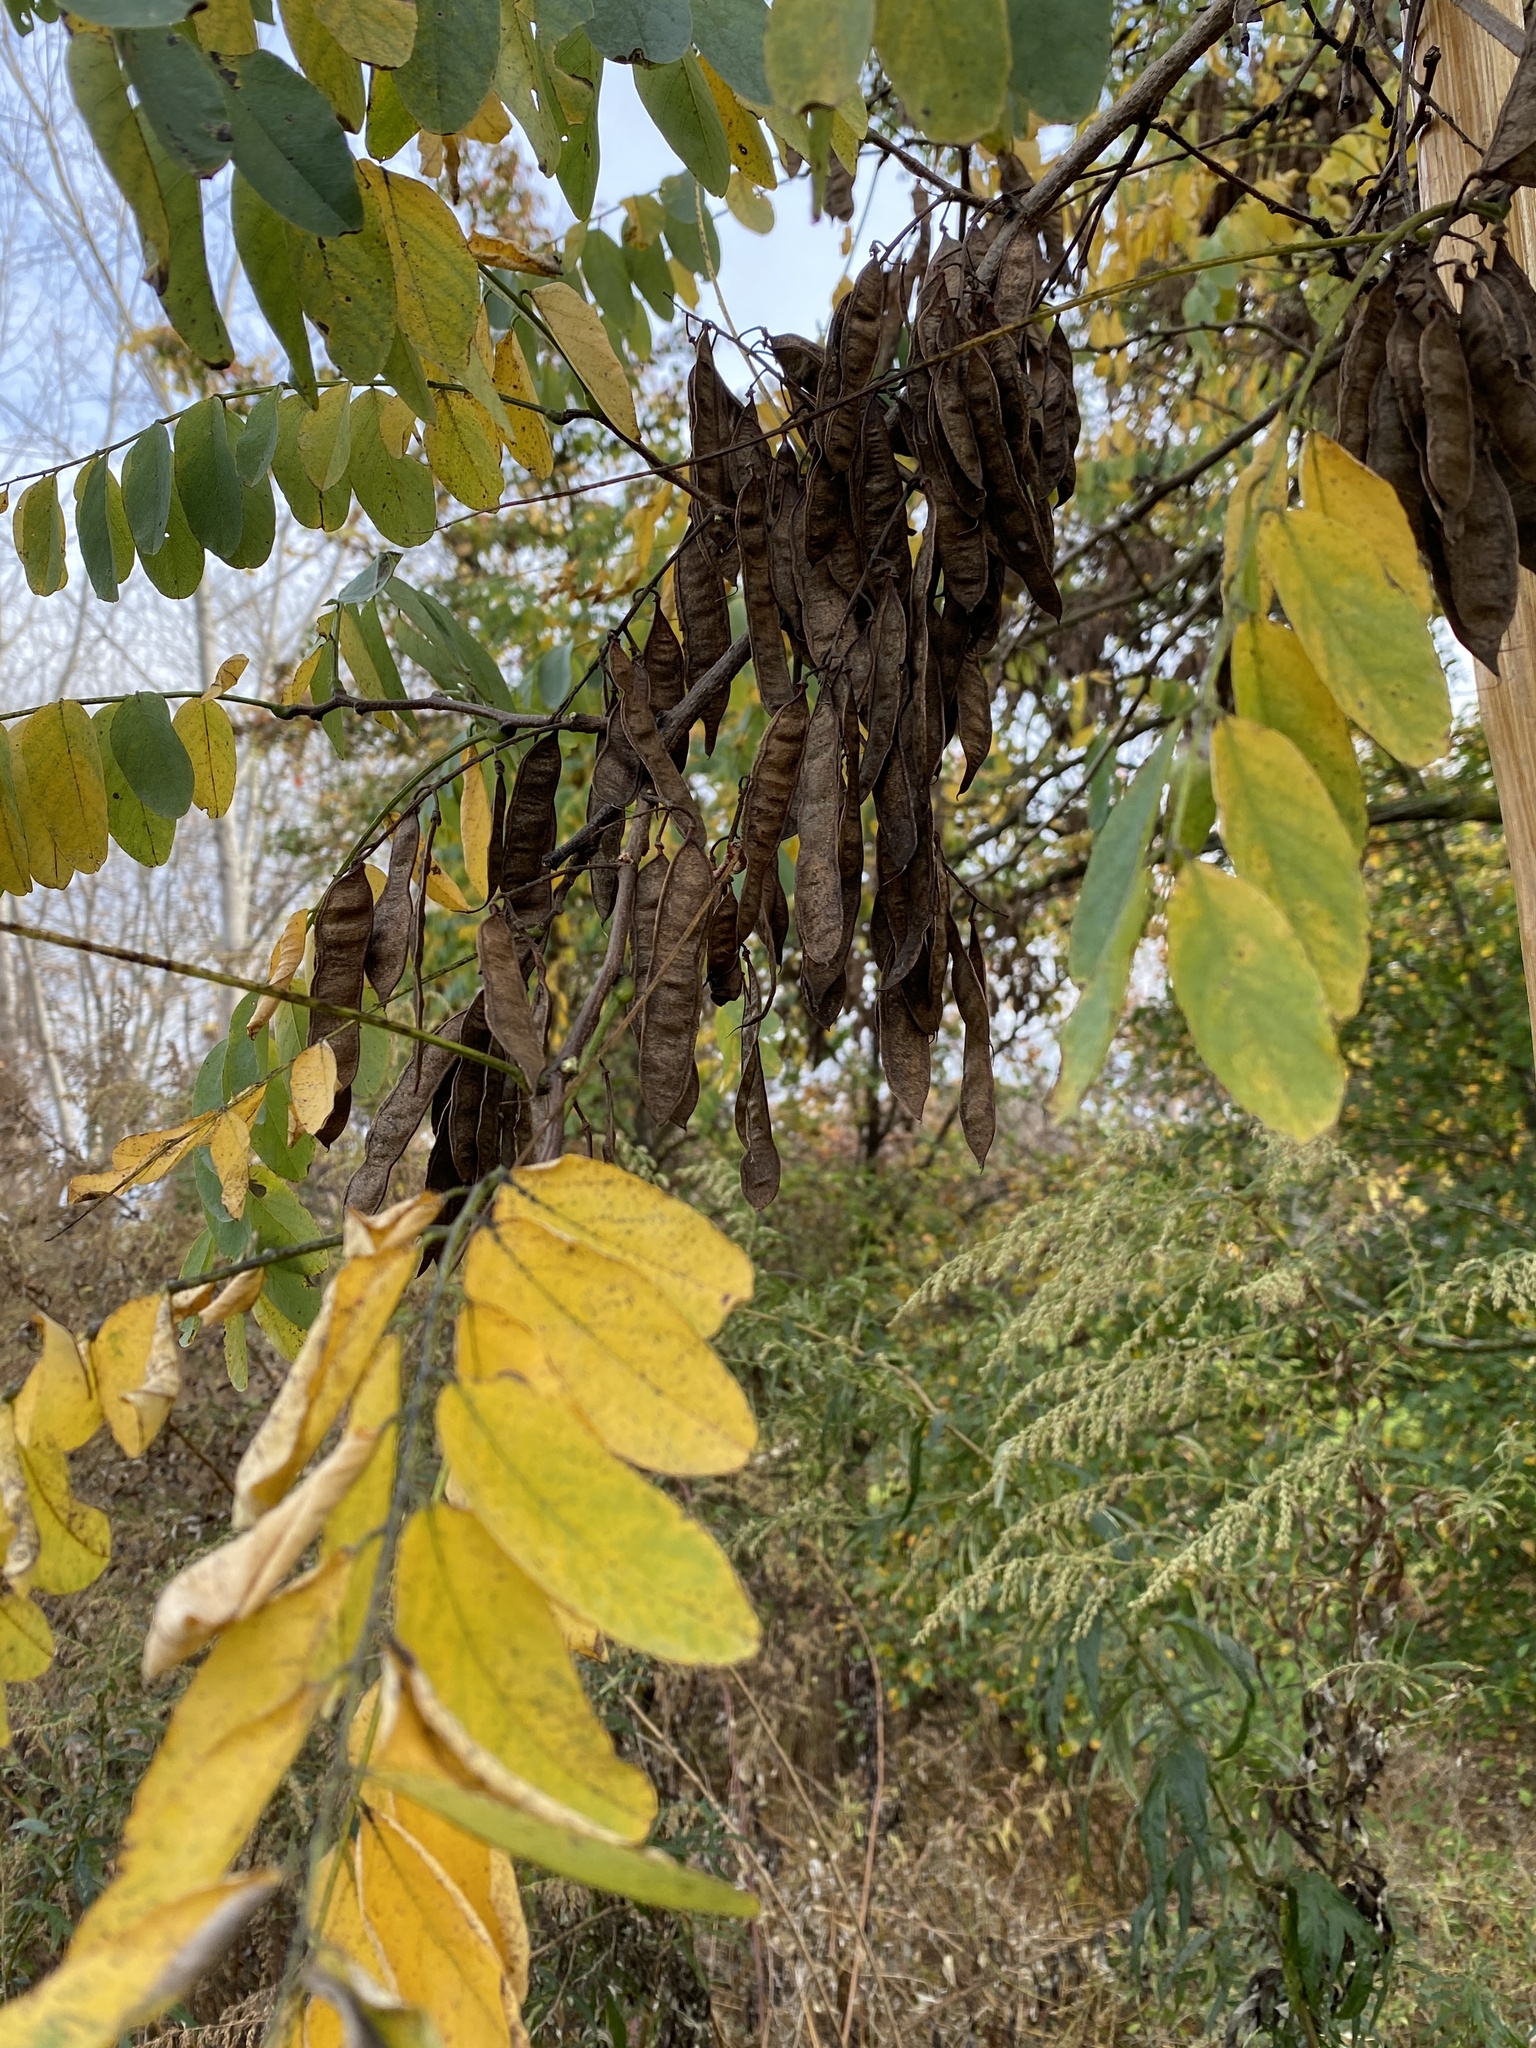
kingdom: Plantae
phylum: Tracheophyta
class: Magnoliopsida
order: Fabales
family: Fabaceae
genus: Robinia
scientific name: Robinia pseudoacacia
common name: Black locust
